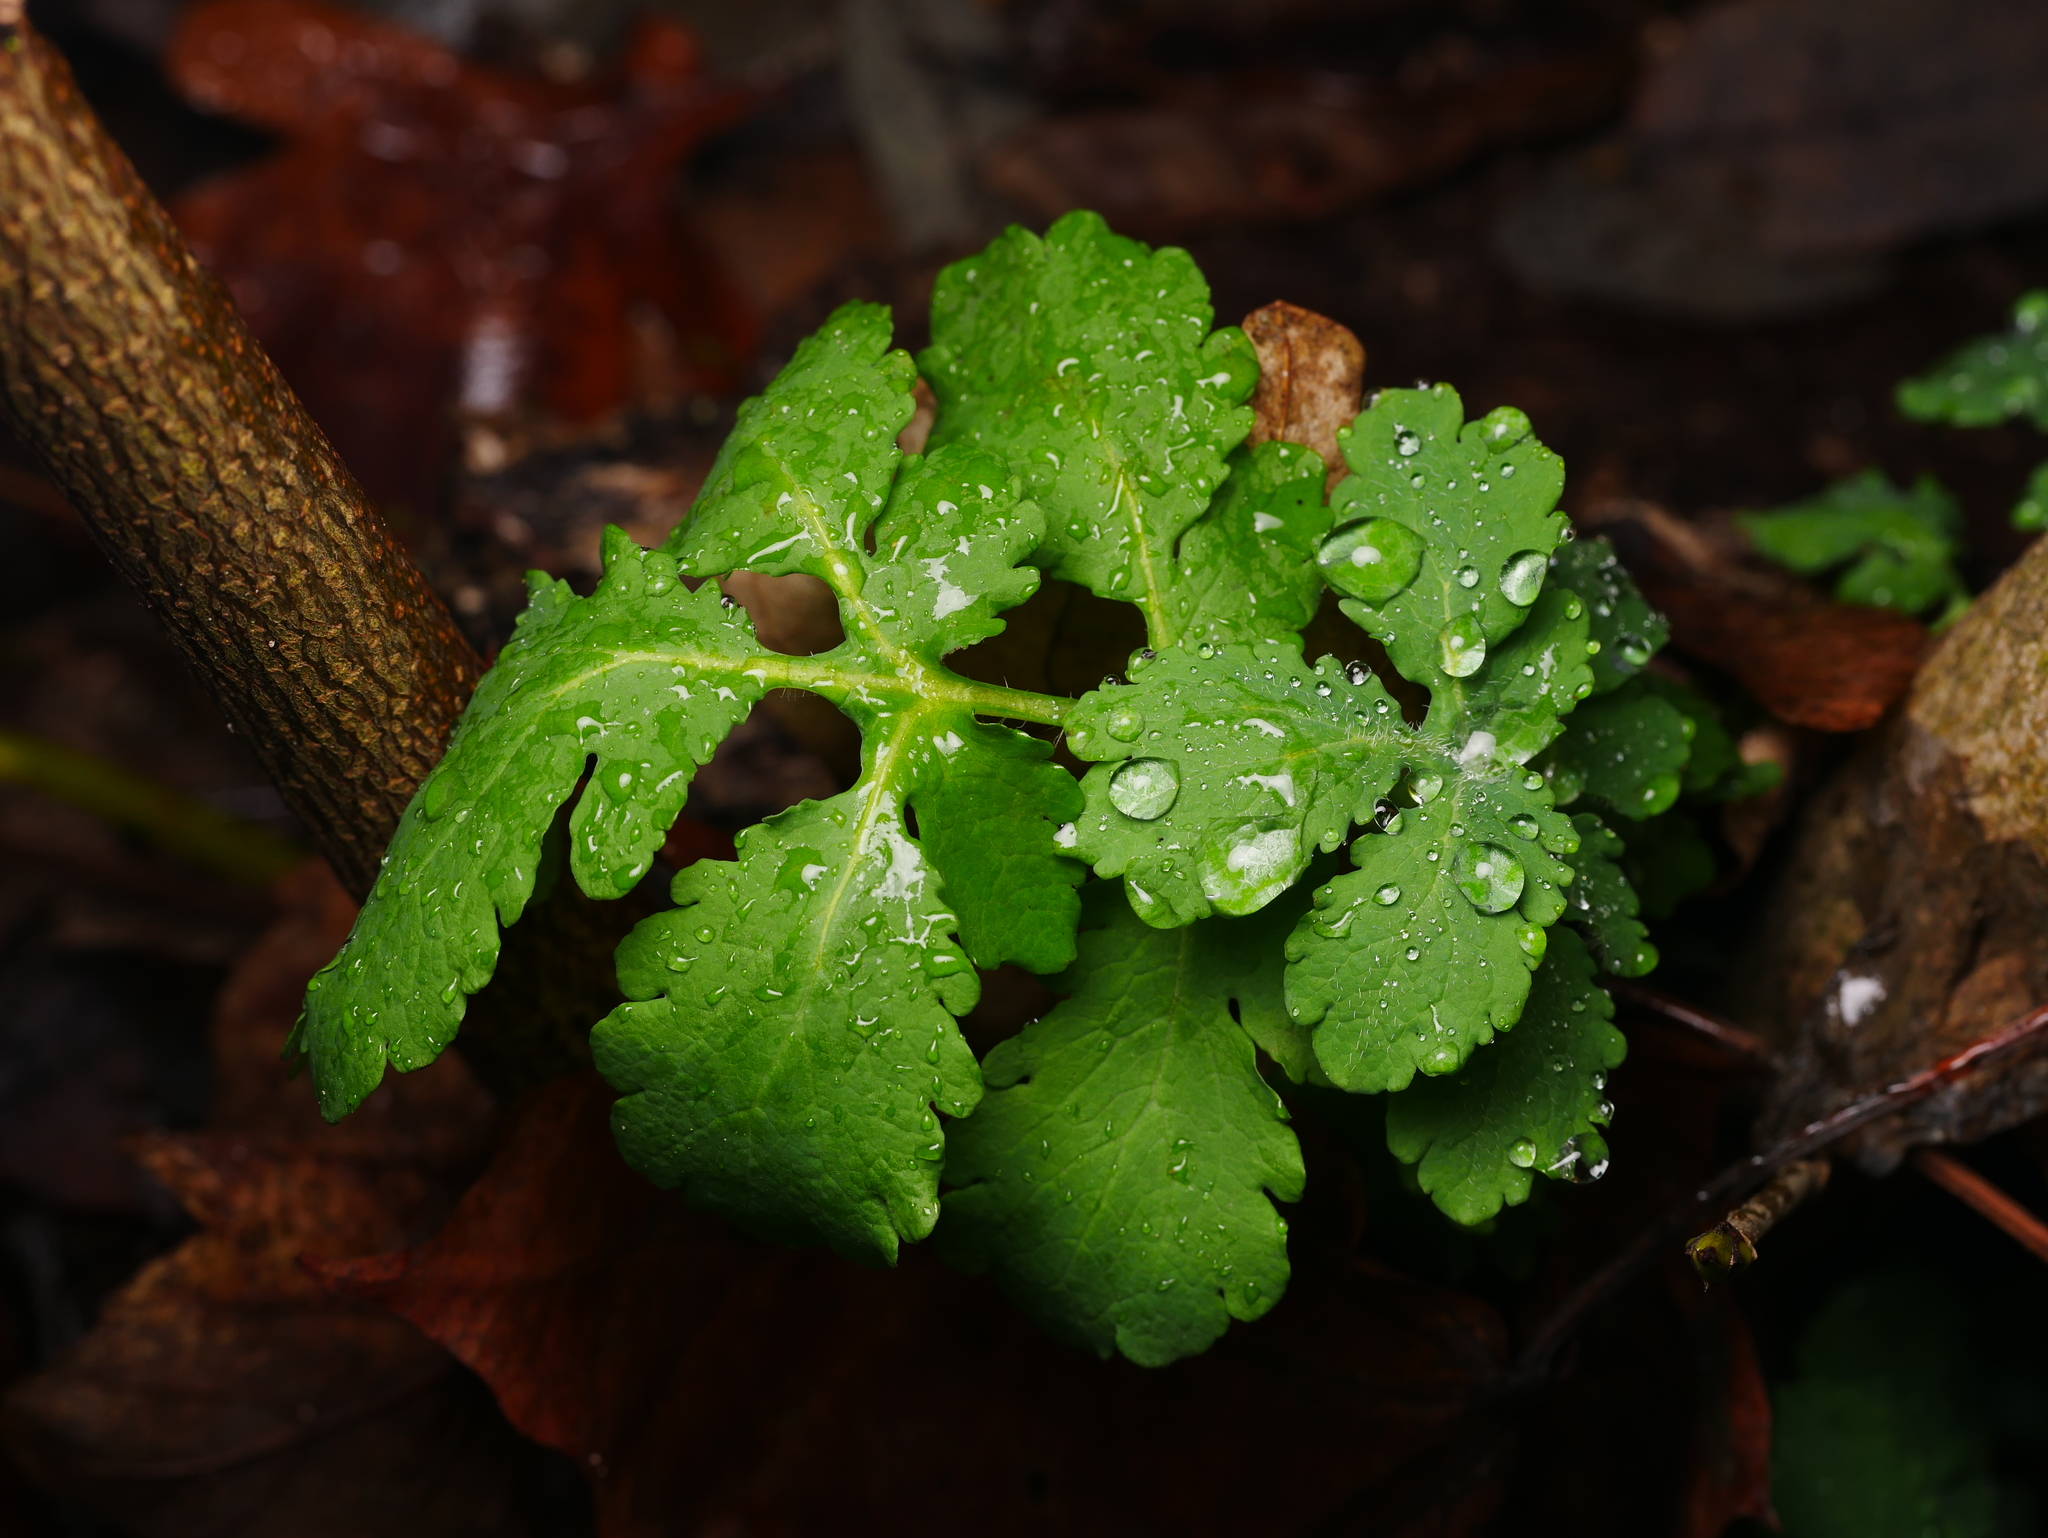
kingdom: Plantae
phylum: Tracheophyta
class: Magnoliopsida
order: Ranunculales
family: Papaveraceae
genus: Chelidonium
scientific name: Chelidonium majus
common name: Greater celandine
